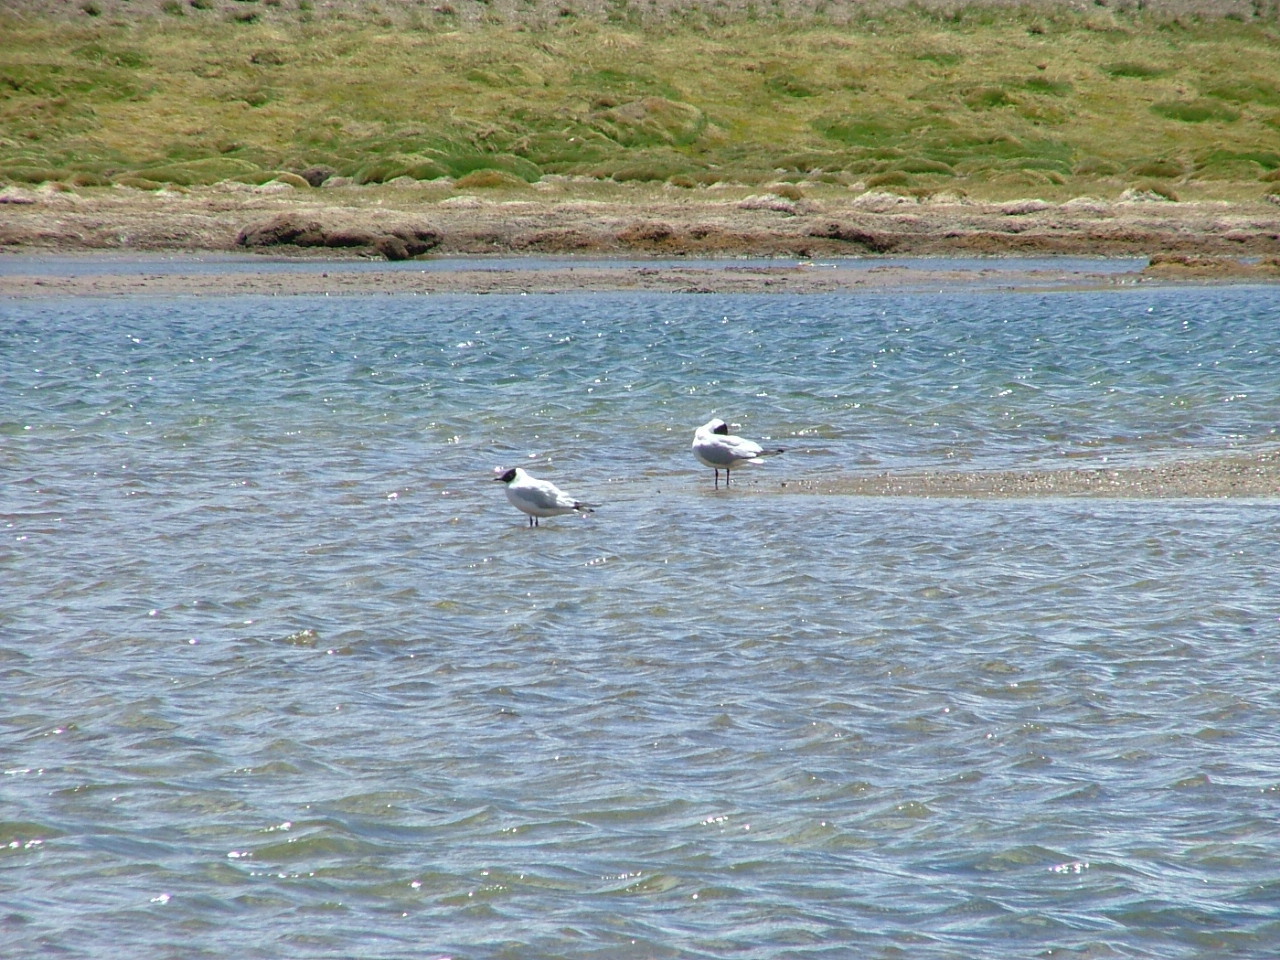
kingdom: Animalia
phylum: Chordata
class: Aves
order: Charadriiformes
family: Laridae
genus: Chroicocephalus
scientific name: Chroicocephalus serranus
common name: Andean gull
